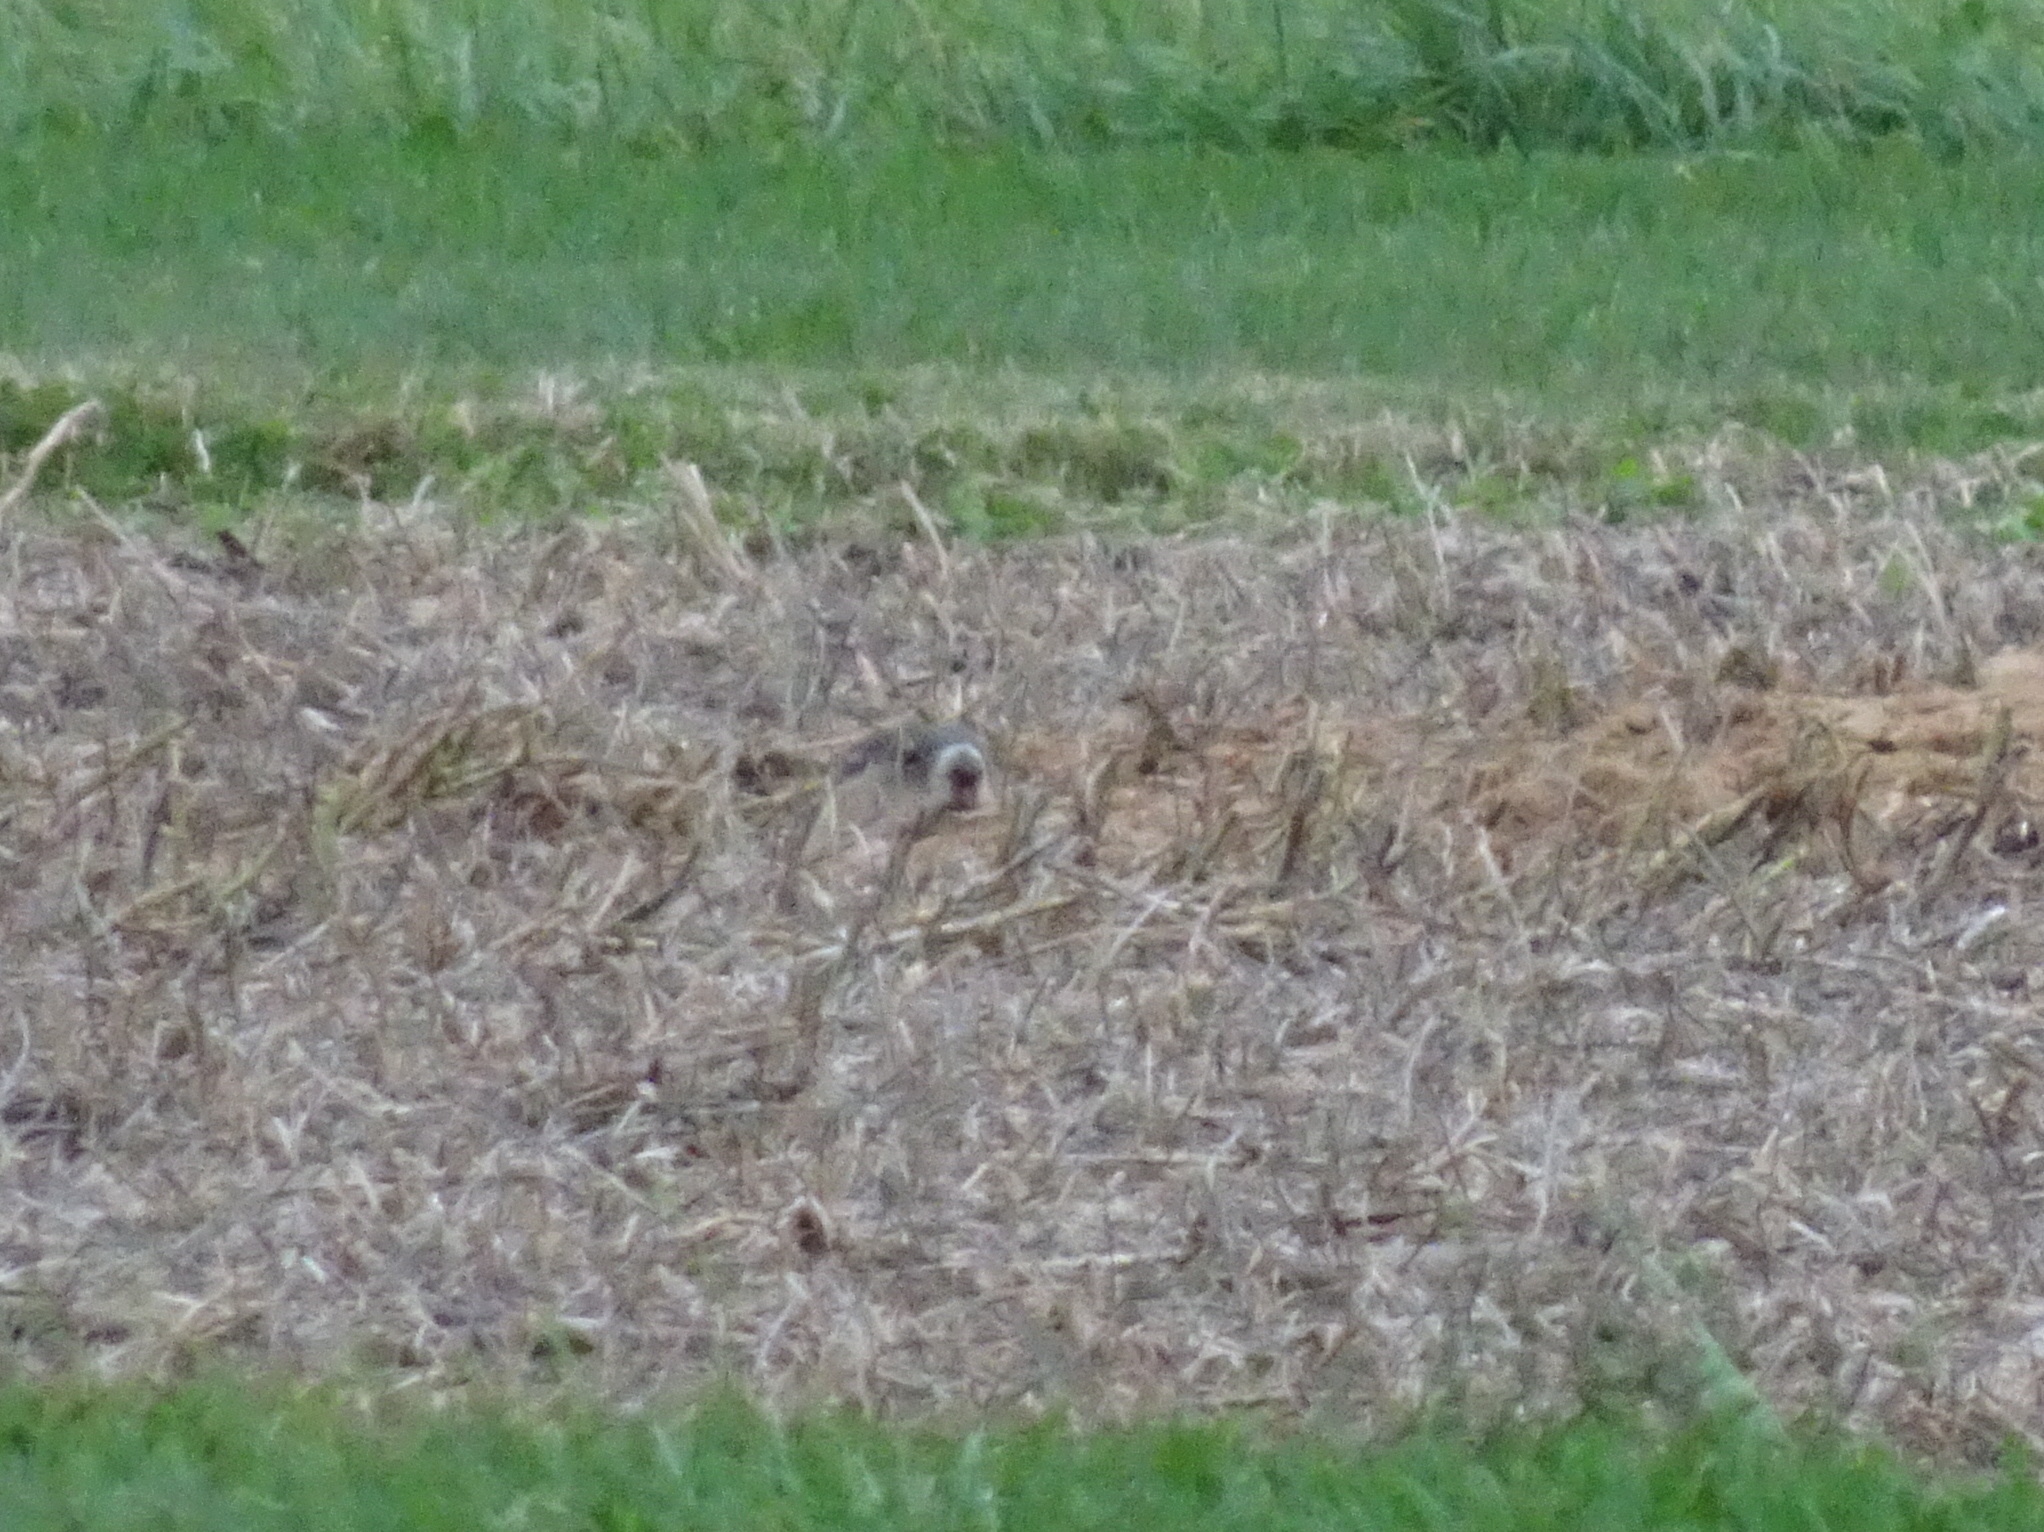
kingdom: Animalia
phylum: Chordata
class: Mammalia
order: Rodentia
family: Sciuridae
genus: Marmota
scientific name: Marmota monax
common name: Groundhog
